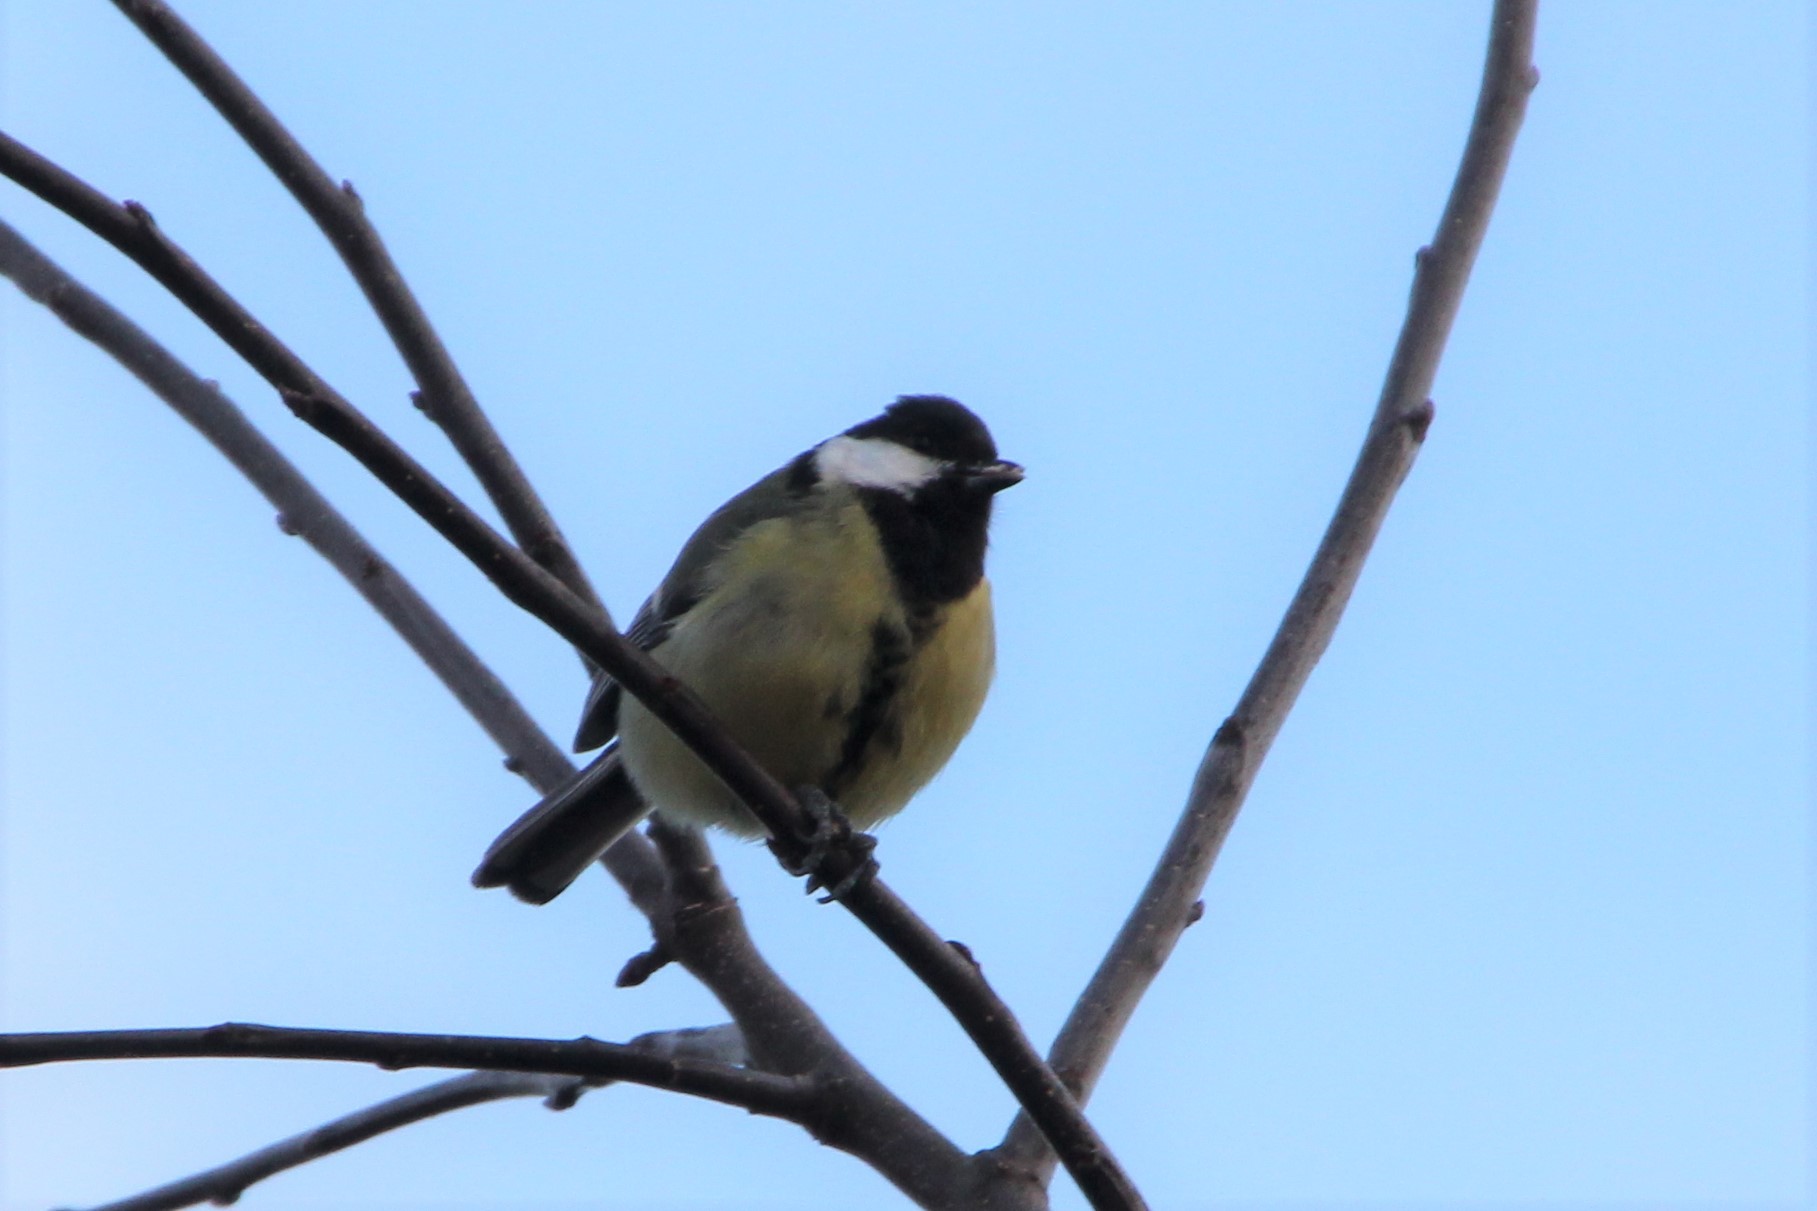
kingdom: Animalia
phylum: Chordata
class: Aves
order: Passeriformes
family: Paridae
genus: Parus
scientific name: Parus major
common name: Great tit
